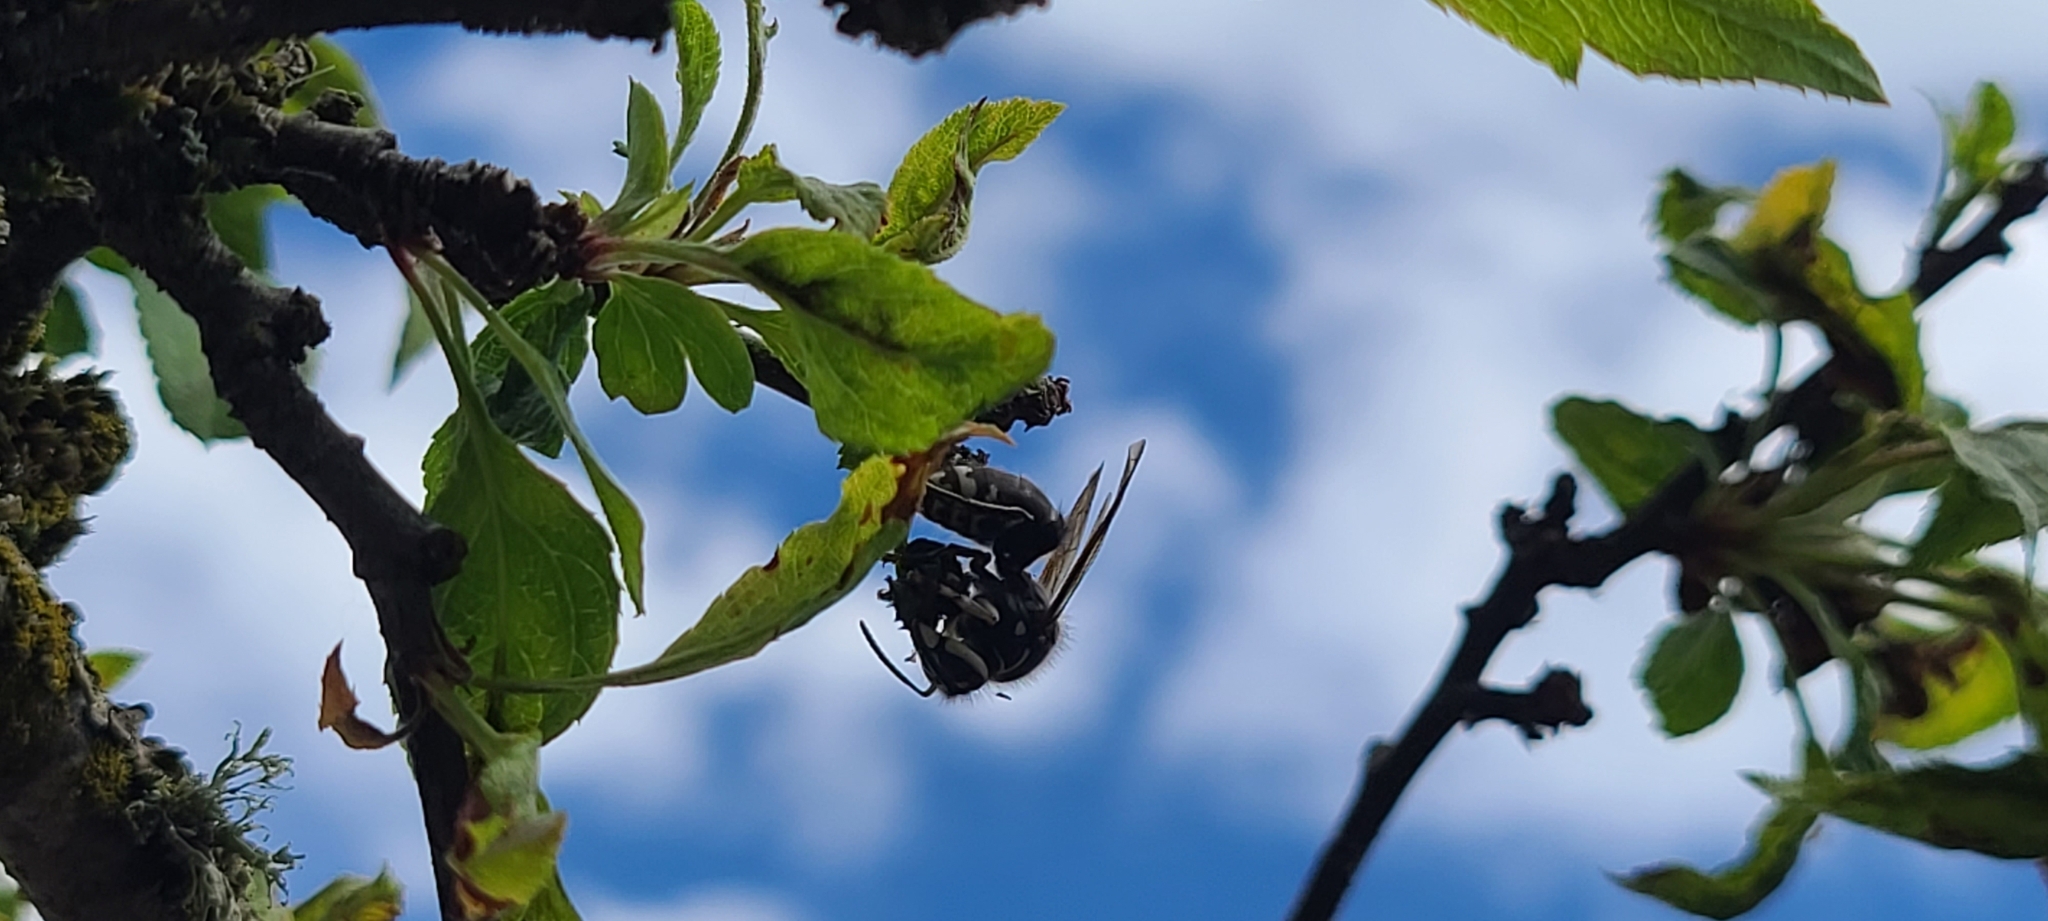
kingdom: Animalia
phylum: Arthropoda
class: Insecta
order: Hymenoptera
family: Vespidae
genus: Dolichovespula
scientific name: Dolichovespula maculata
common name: Bald-faced hornet
